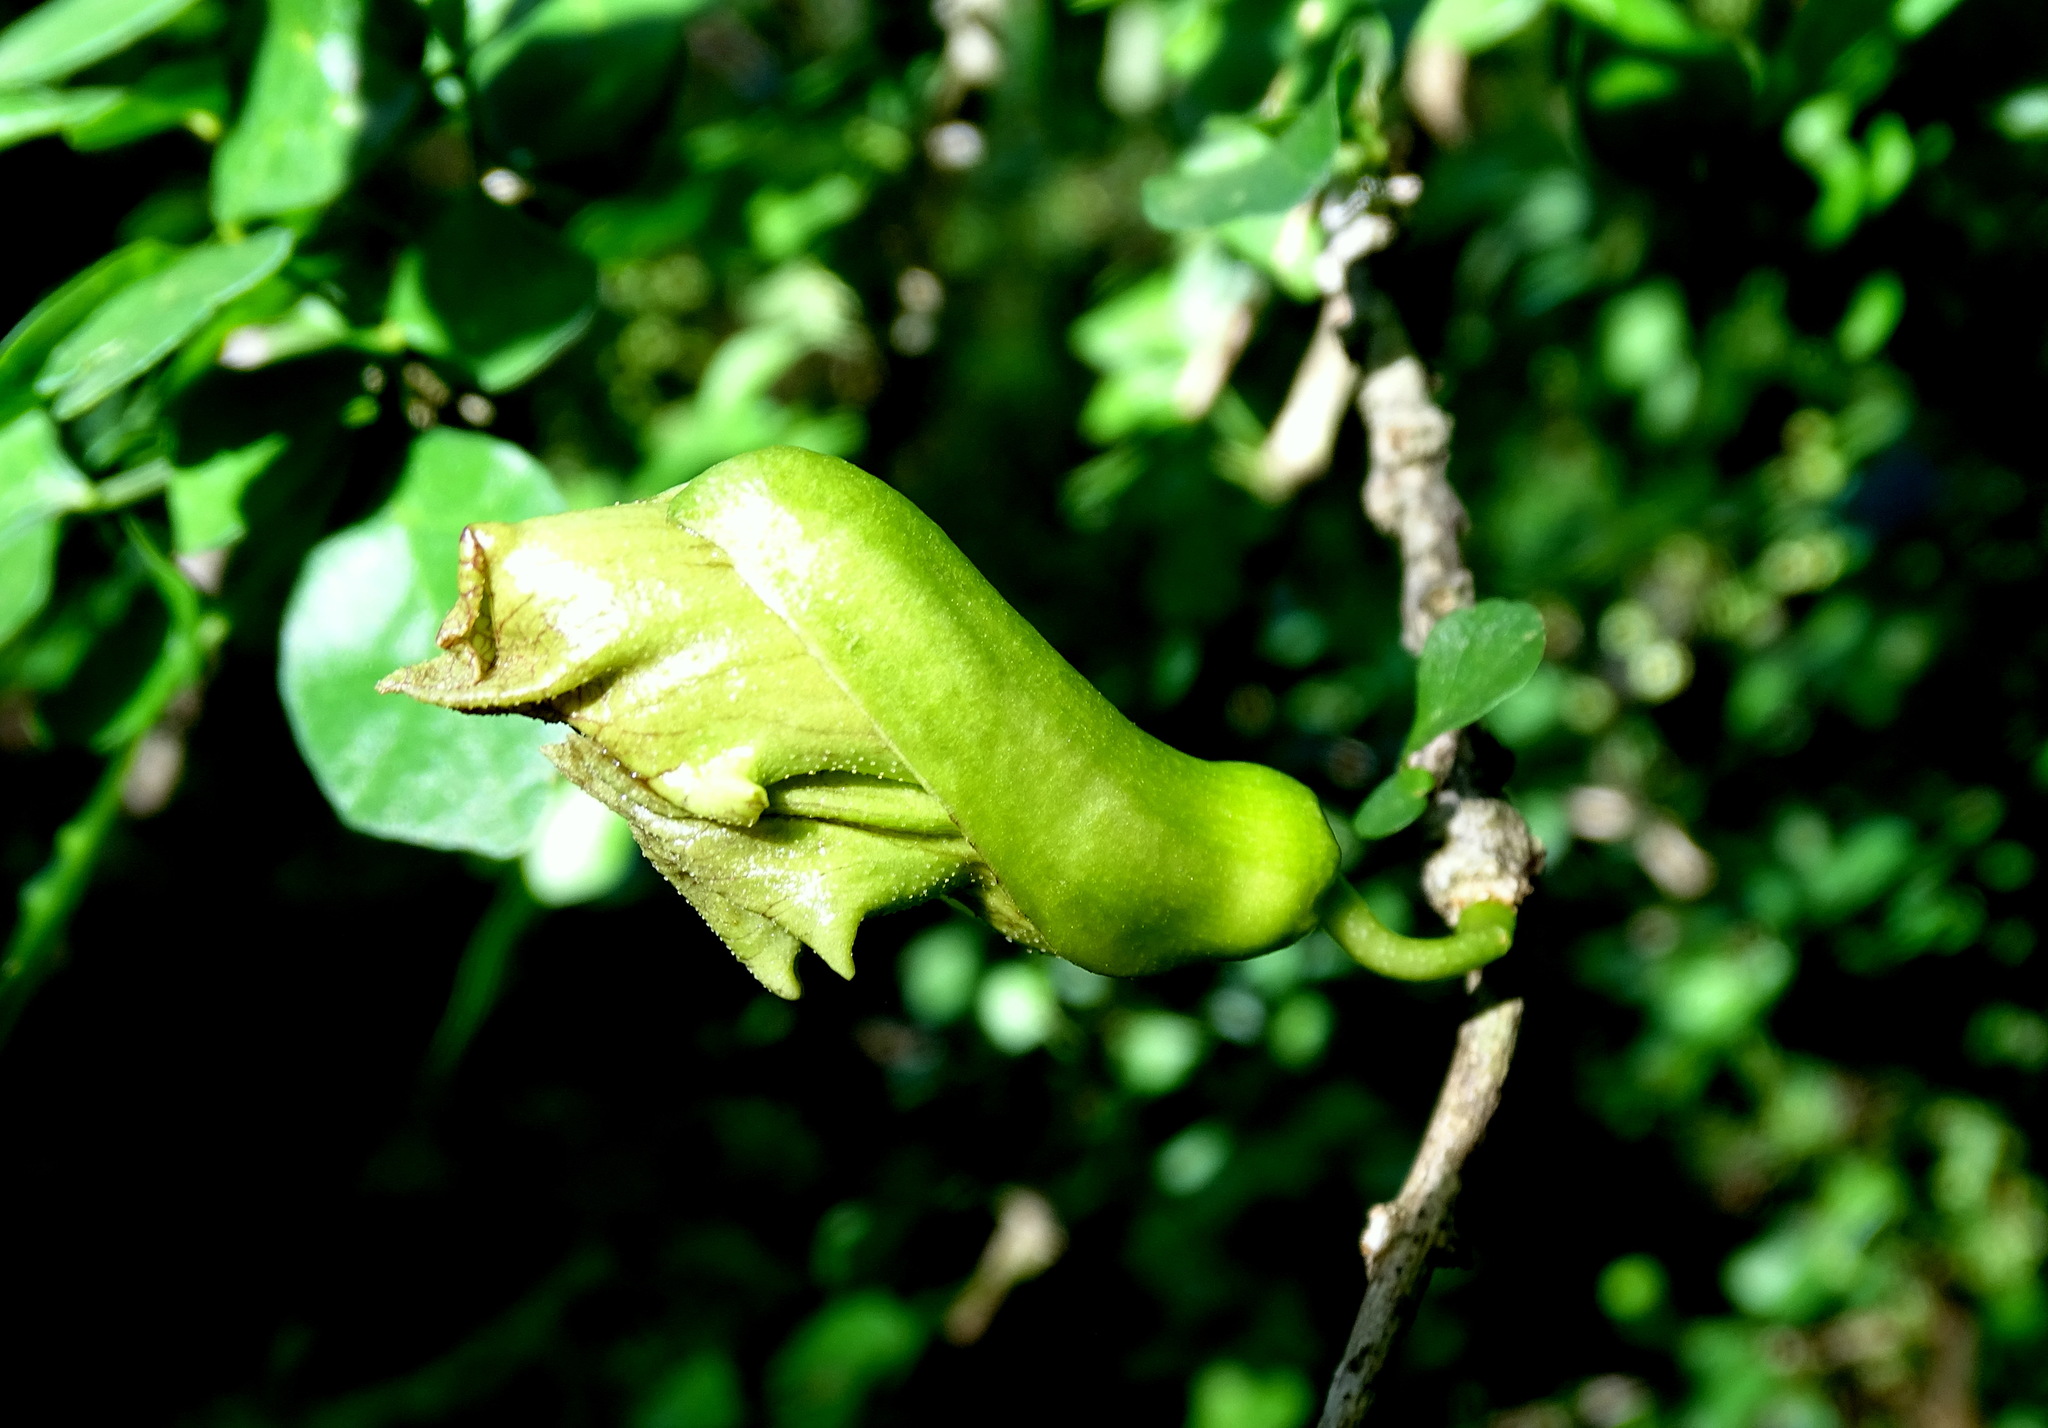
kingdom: Plantae
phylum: Tracheophyta
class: Magnoliopsida
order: Lamiales
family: Bignoniaceae
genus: Parmentiera
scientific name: Parmentiera millspaughiana
